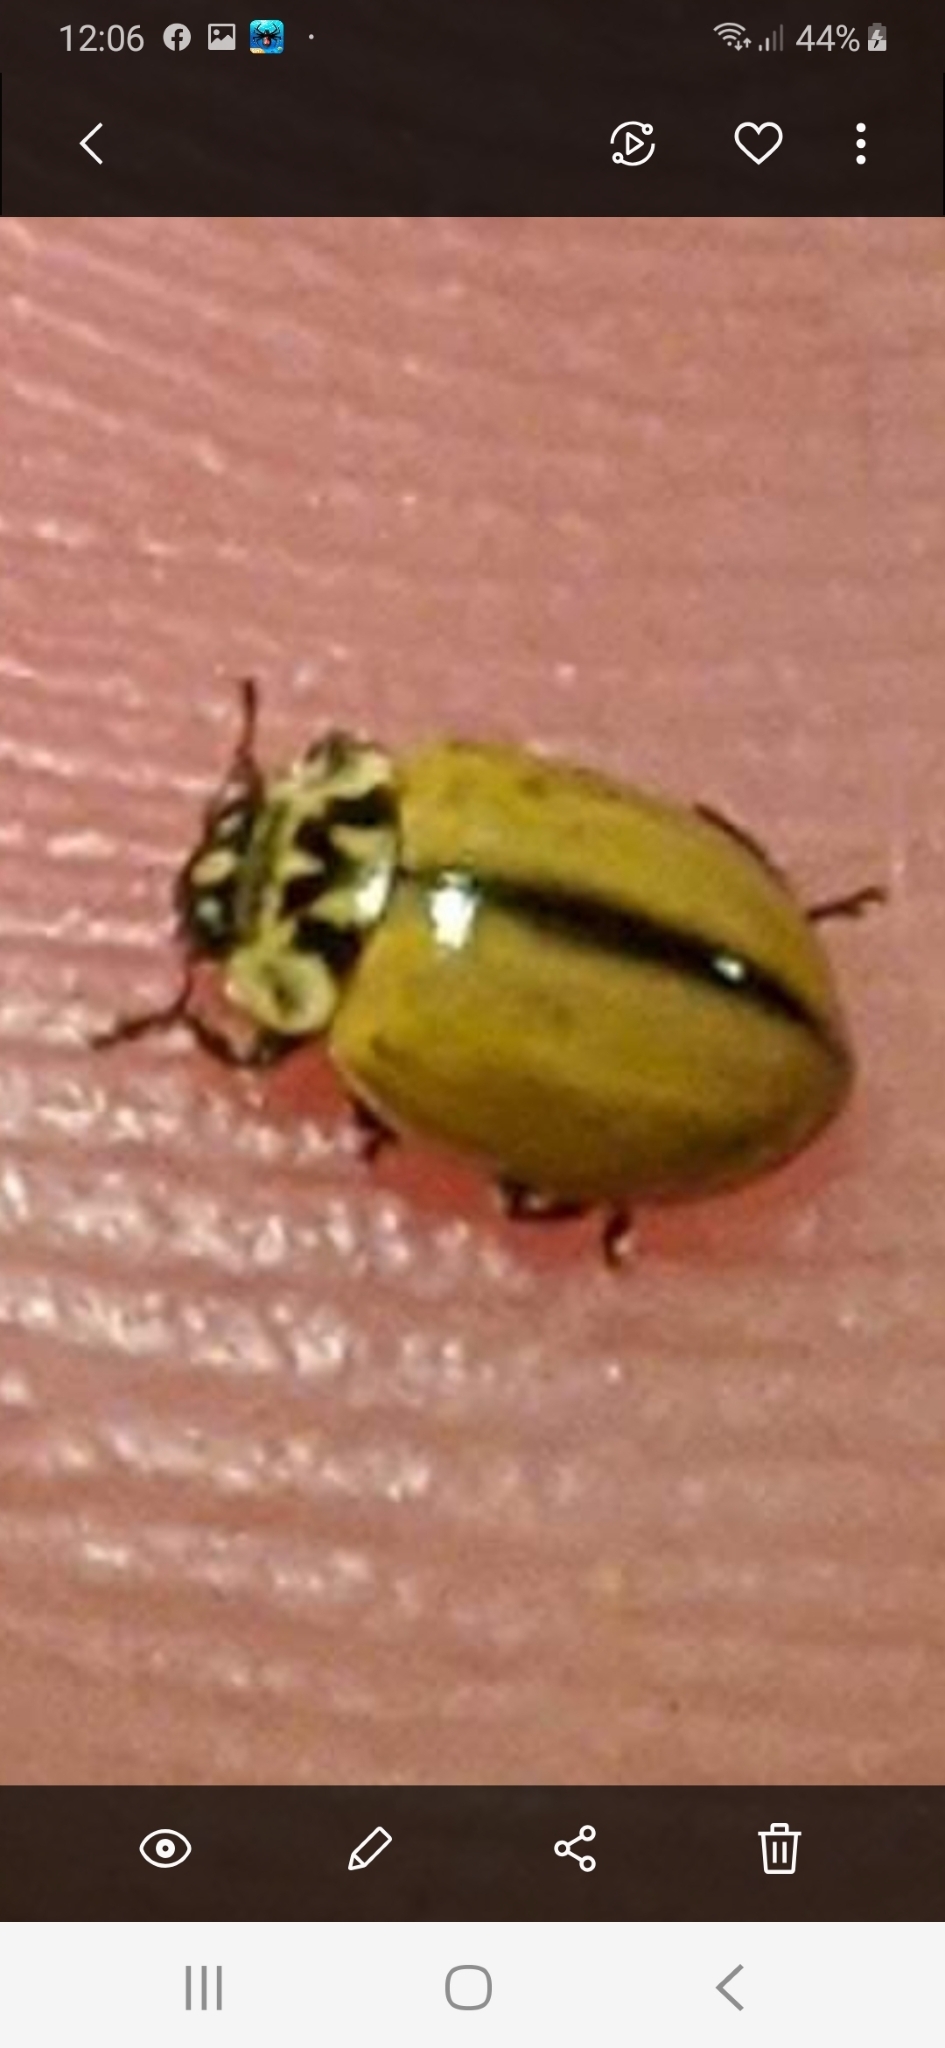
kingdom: Animalia
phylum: Arthropoda
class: Insecta
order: Coleoptera
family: Coccinellidae
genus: Aphidecta
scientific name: Aphidecta obliterata
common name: Larch ladybird
